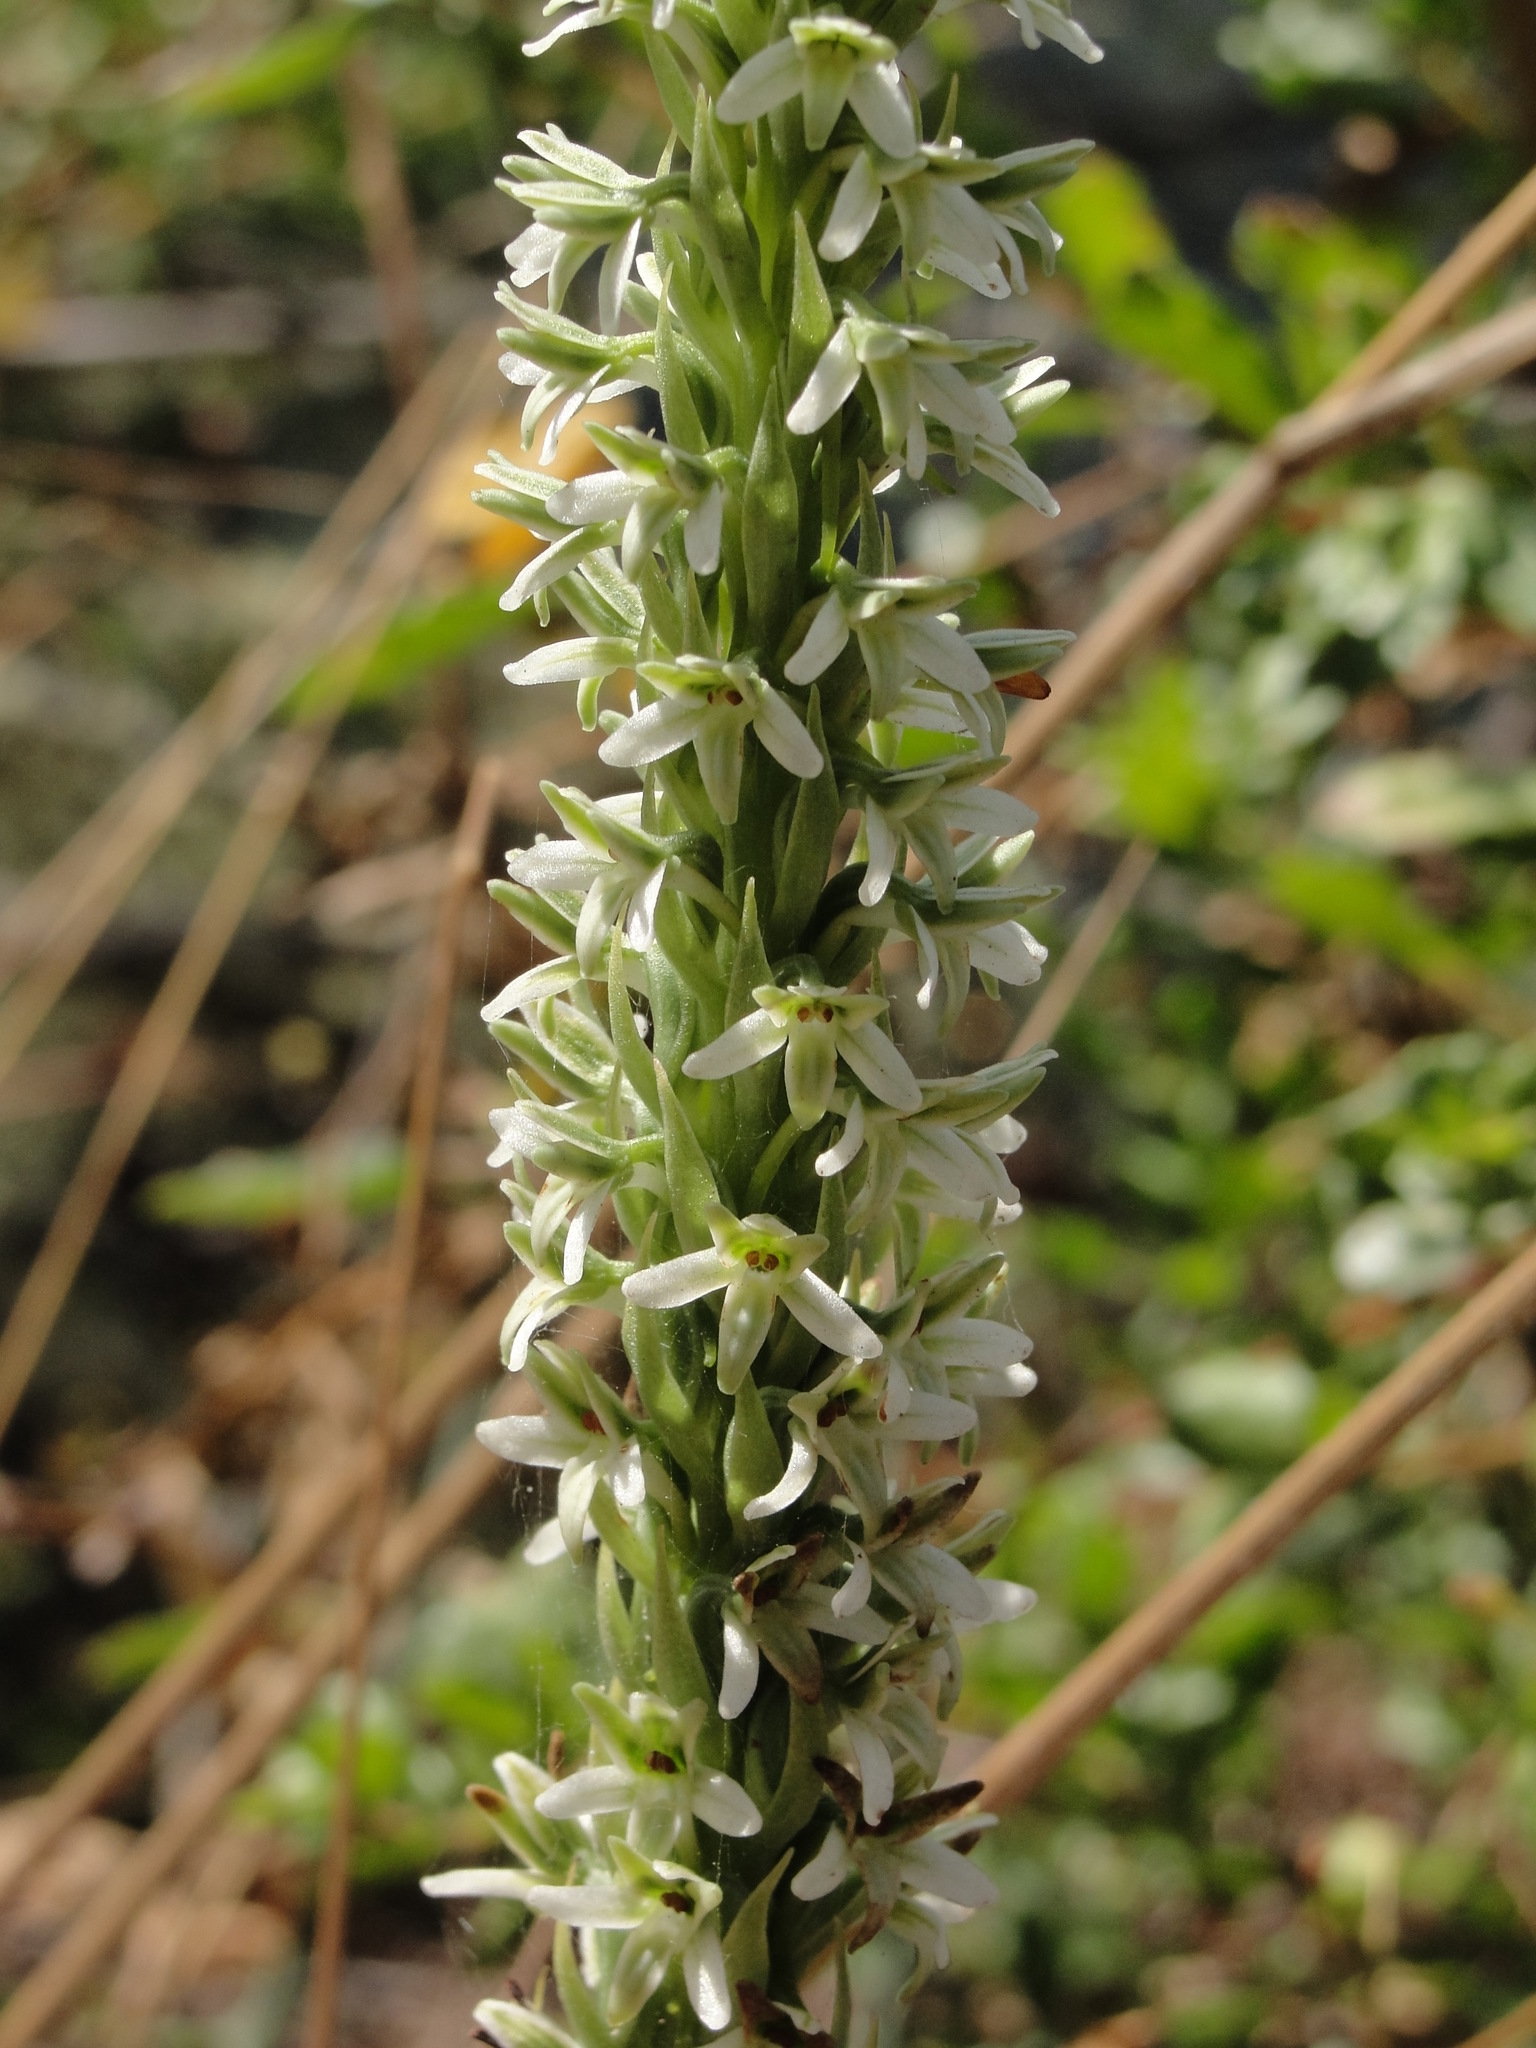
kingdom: Plantae
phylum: Tracheophyta
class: Liliopsida
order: Asparagales
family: Orchidaceae
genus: Platanthera
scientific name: Platanthera elegans
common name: Coast piperia
